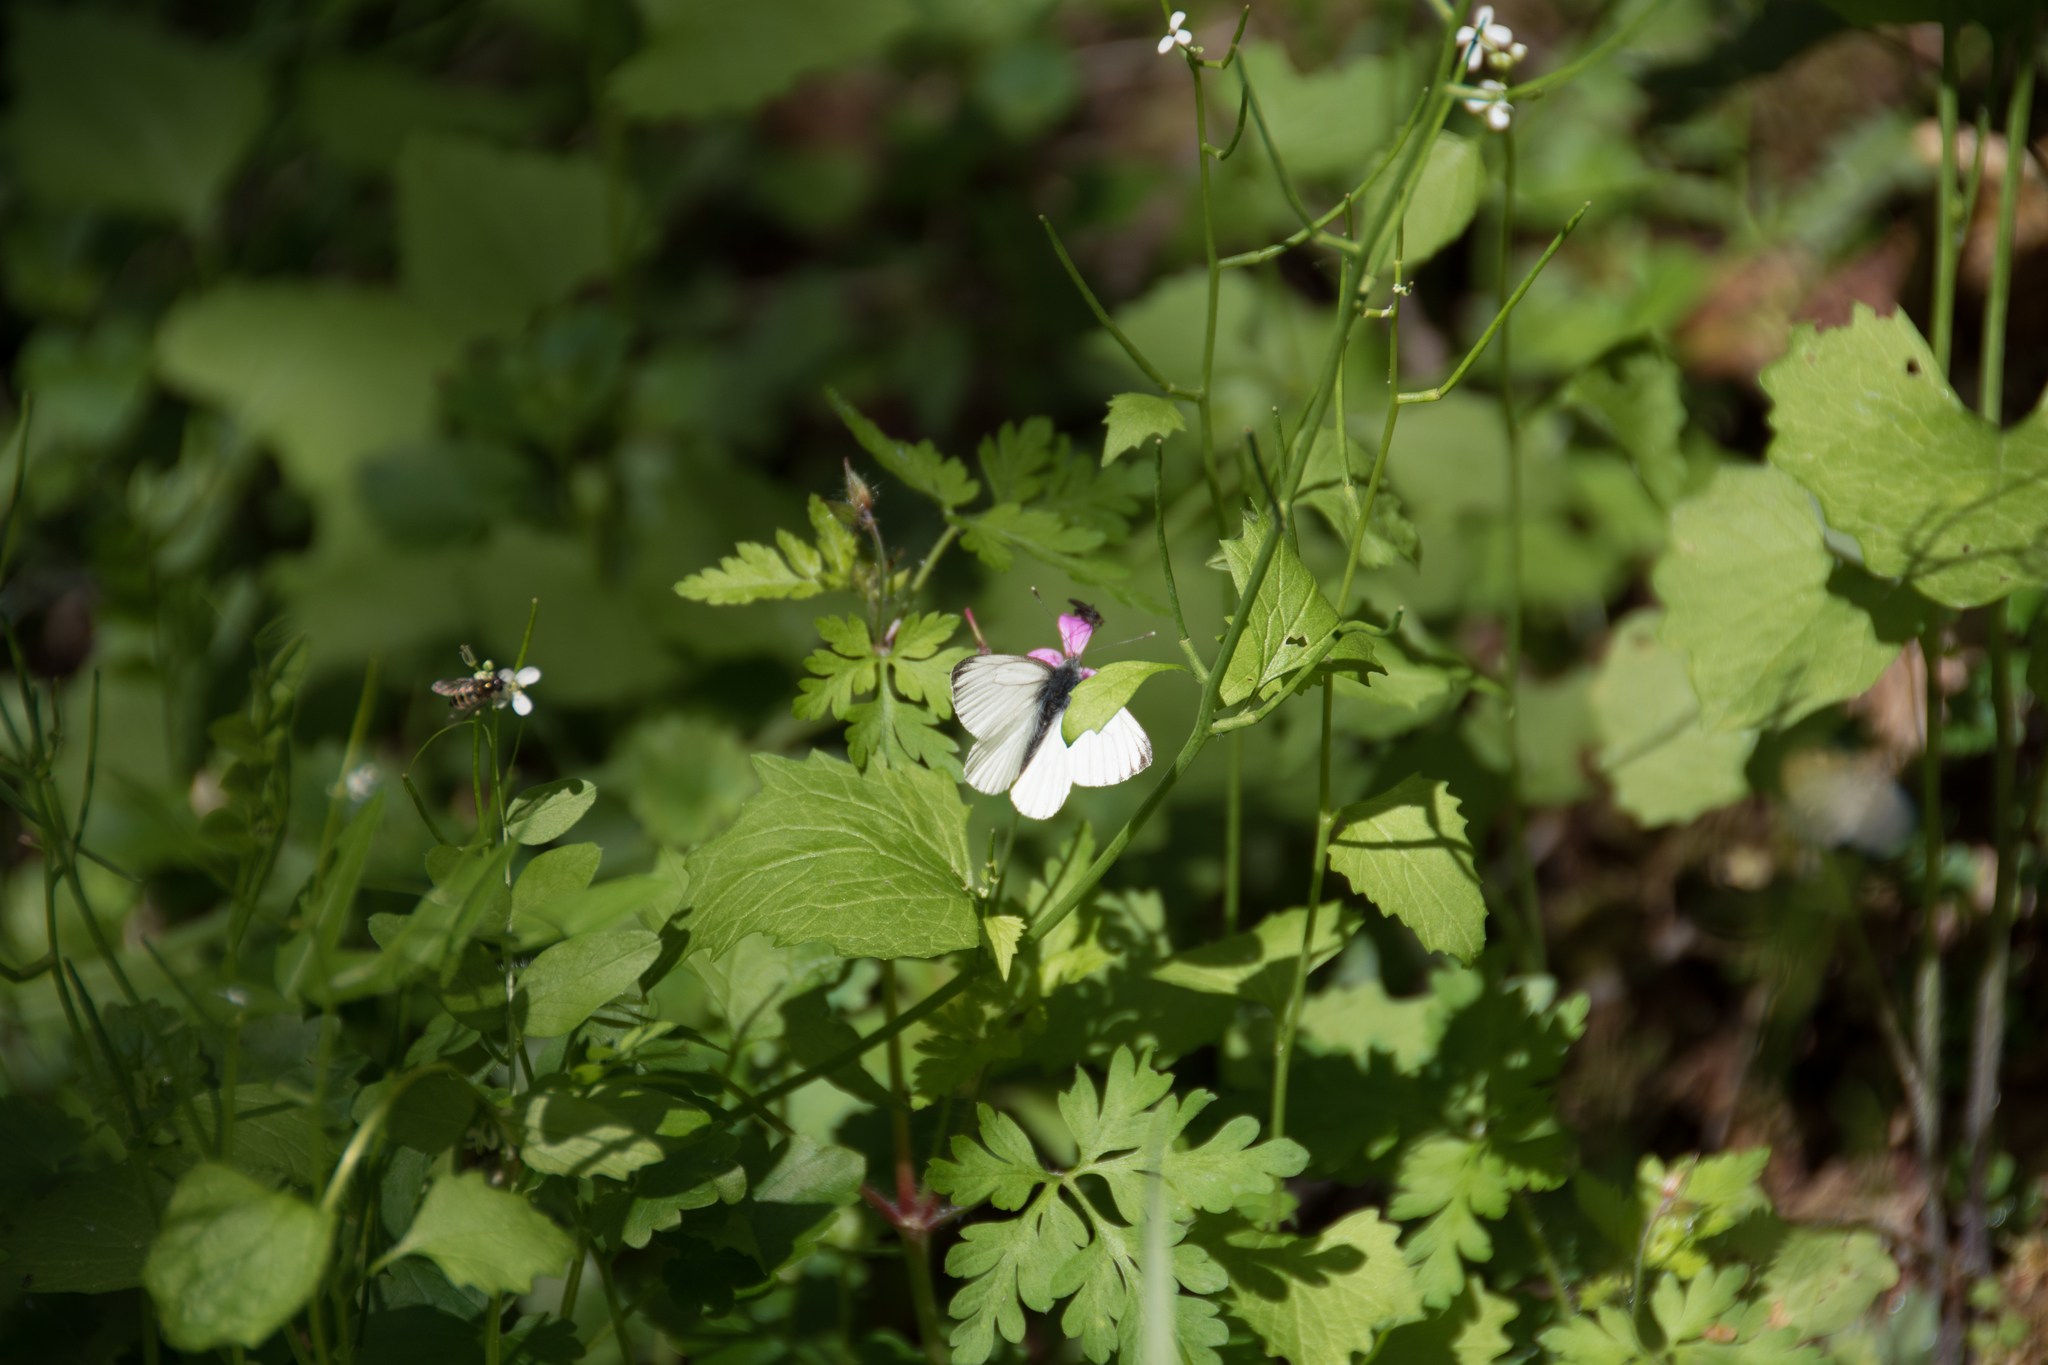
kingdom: Animalia
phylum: Arthropoda
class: Insecta
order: Lepidoptera
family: Pieridae
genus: Pieris
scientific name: Pieris napi
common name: Green-veined white
